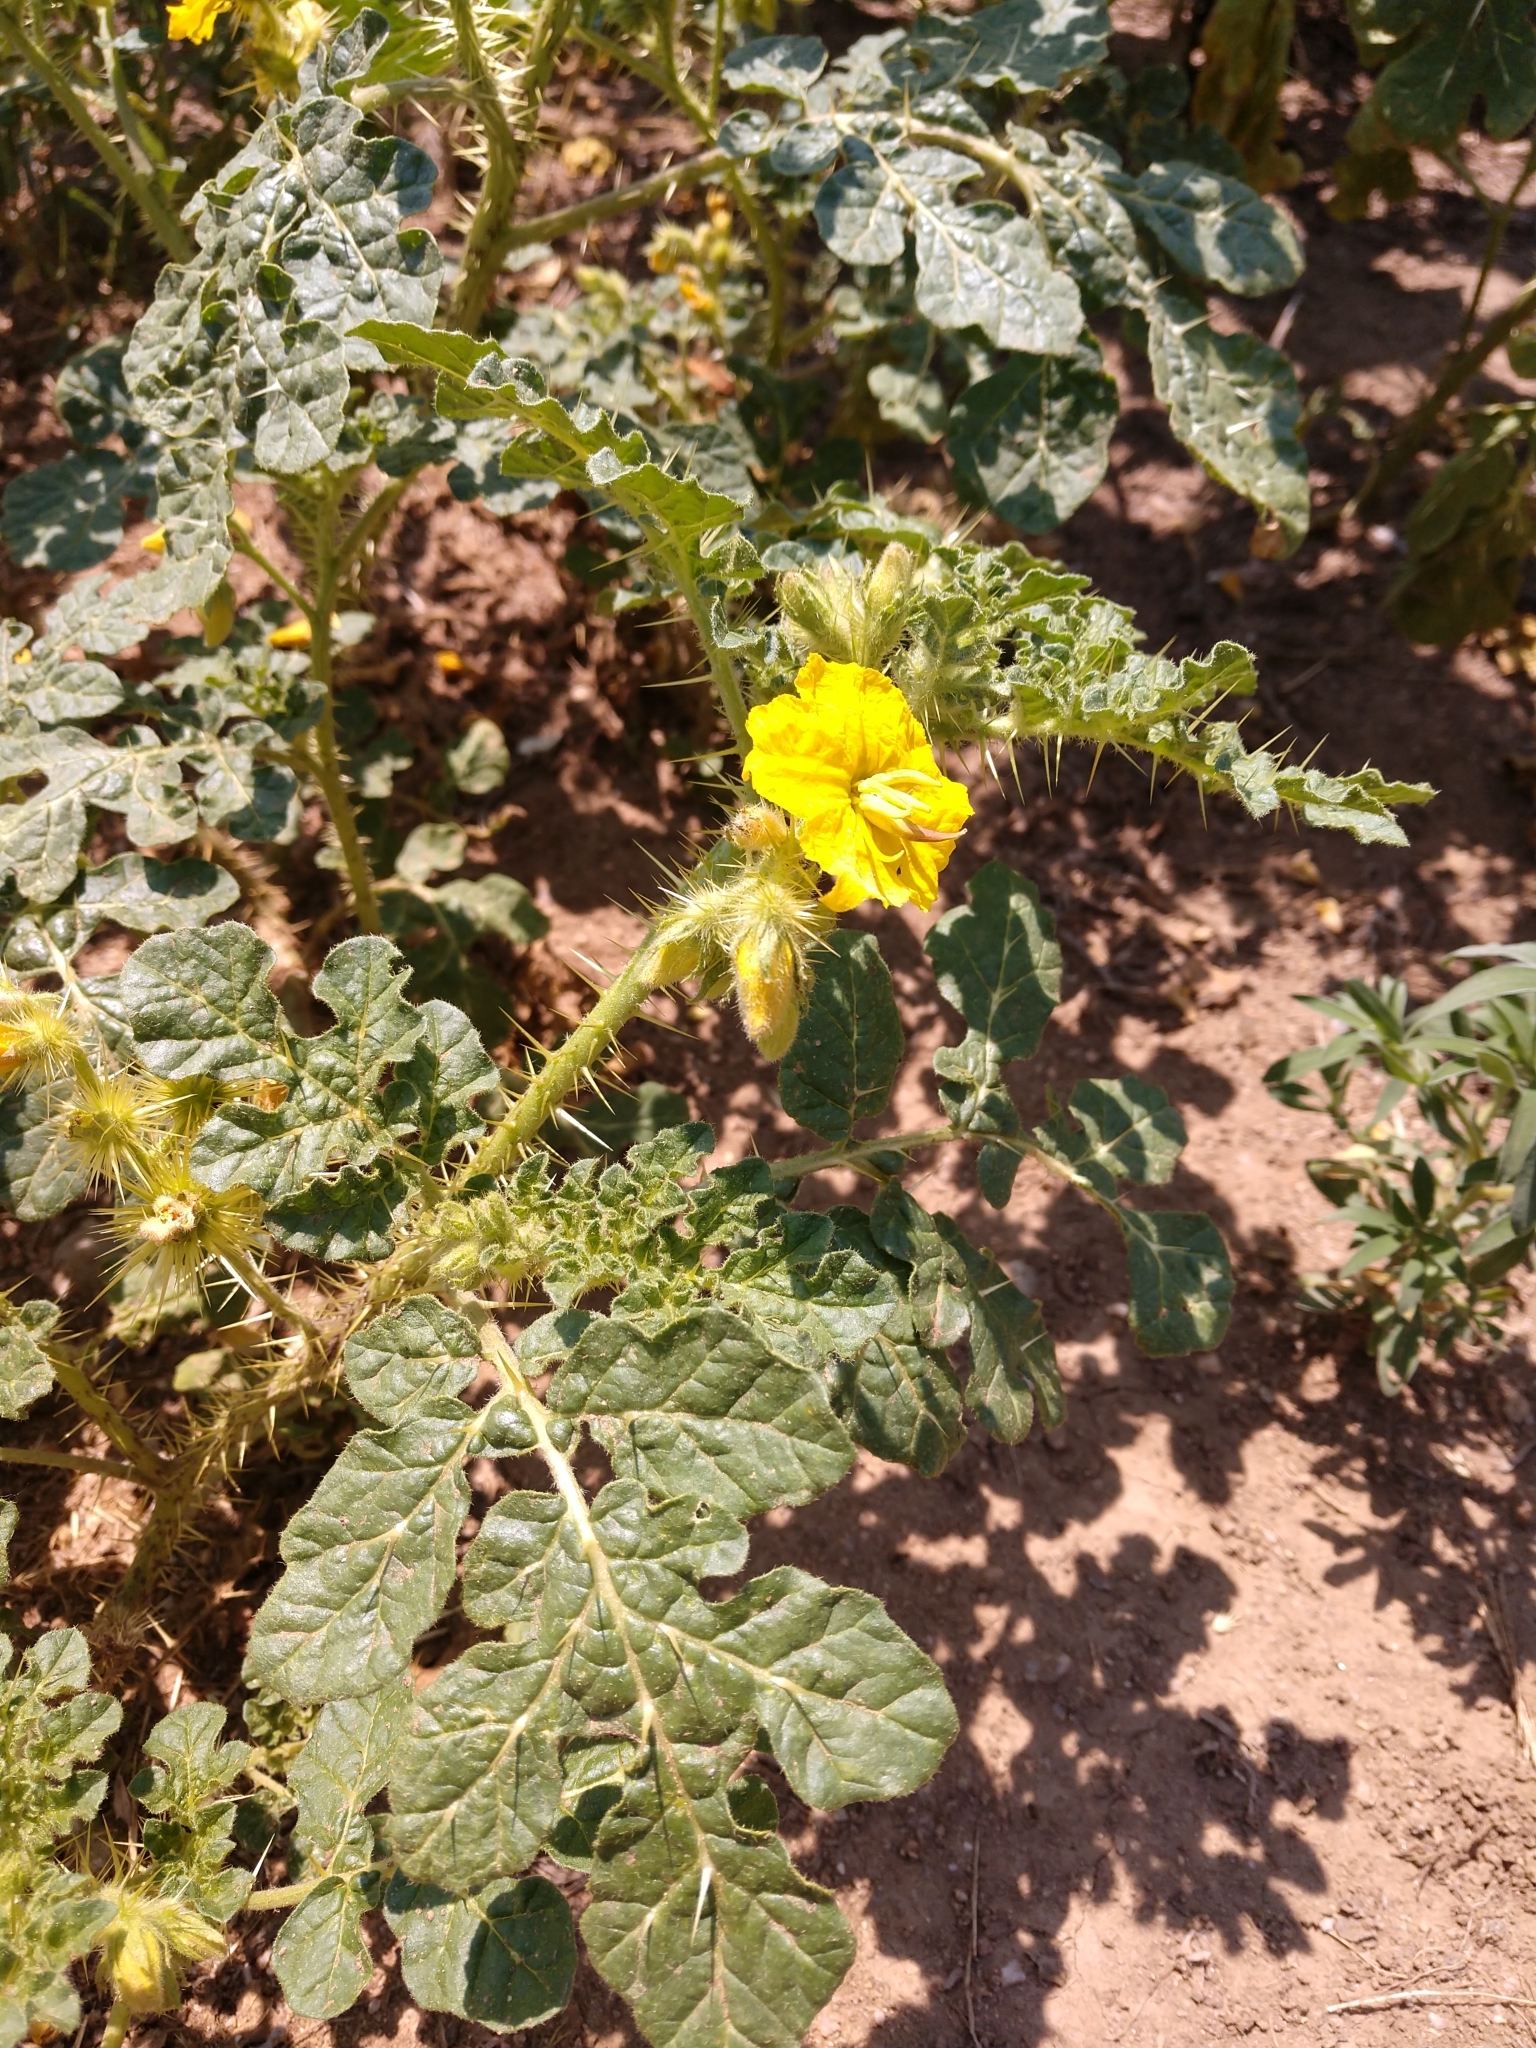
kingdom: Plantae
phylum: Tracheophyta
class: Magnoliopsida
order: Solanales
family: Solanaceae
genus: Solanum
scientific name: Solanum angustifolium
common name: Buffalobur nightshade
